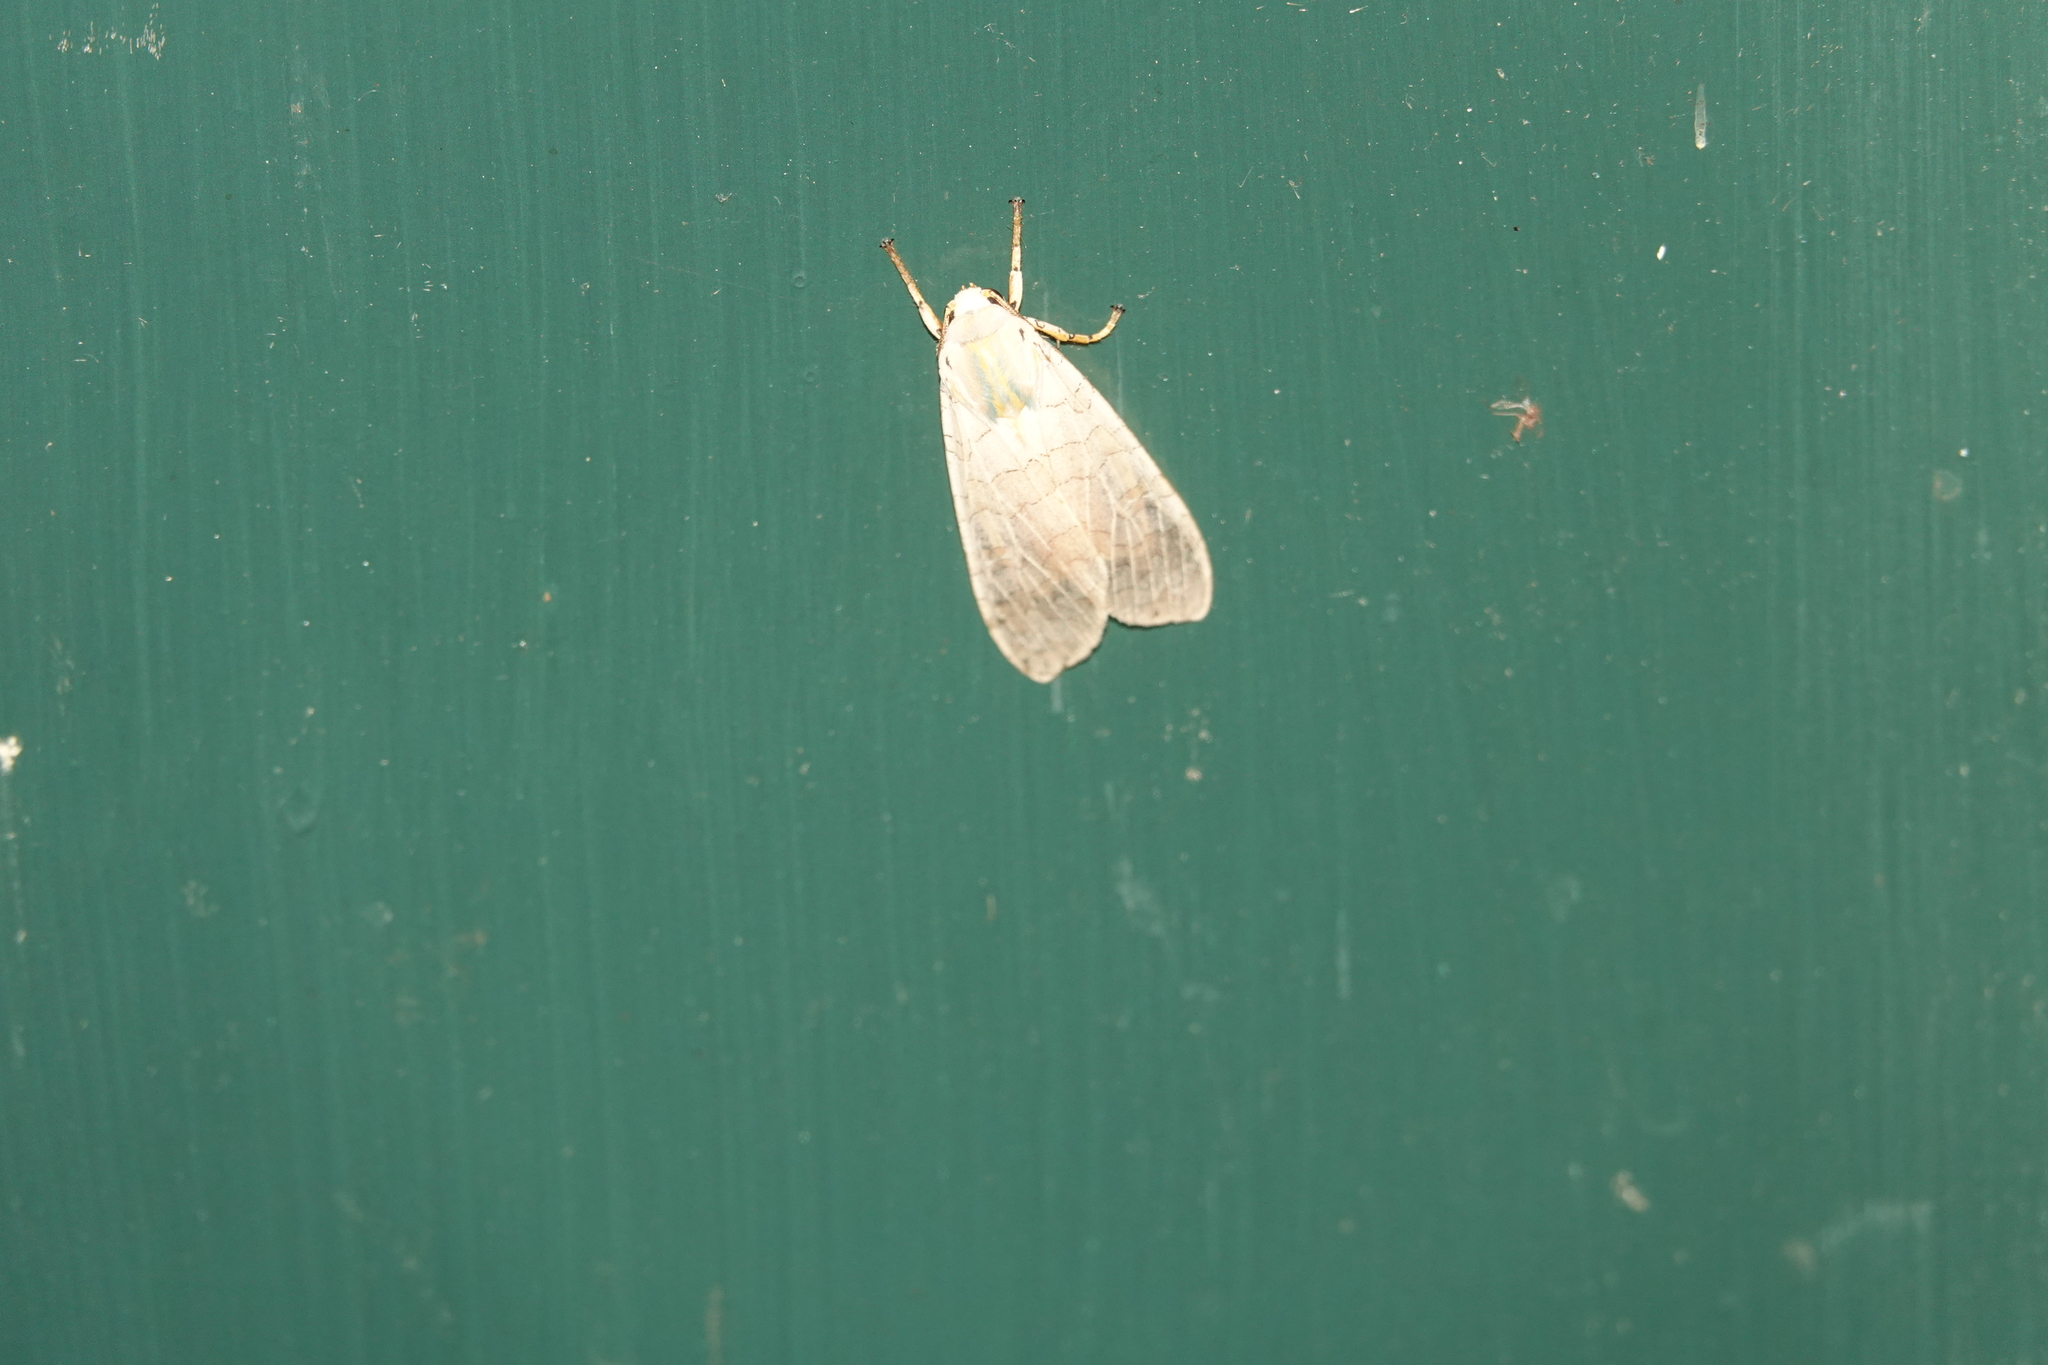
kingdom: Animalia
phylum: Arthropoda
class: Insecta
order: Lepidoptera
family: Erebidae
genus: Halysidota
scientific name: Halysidota
